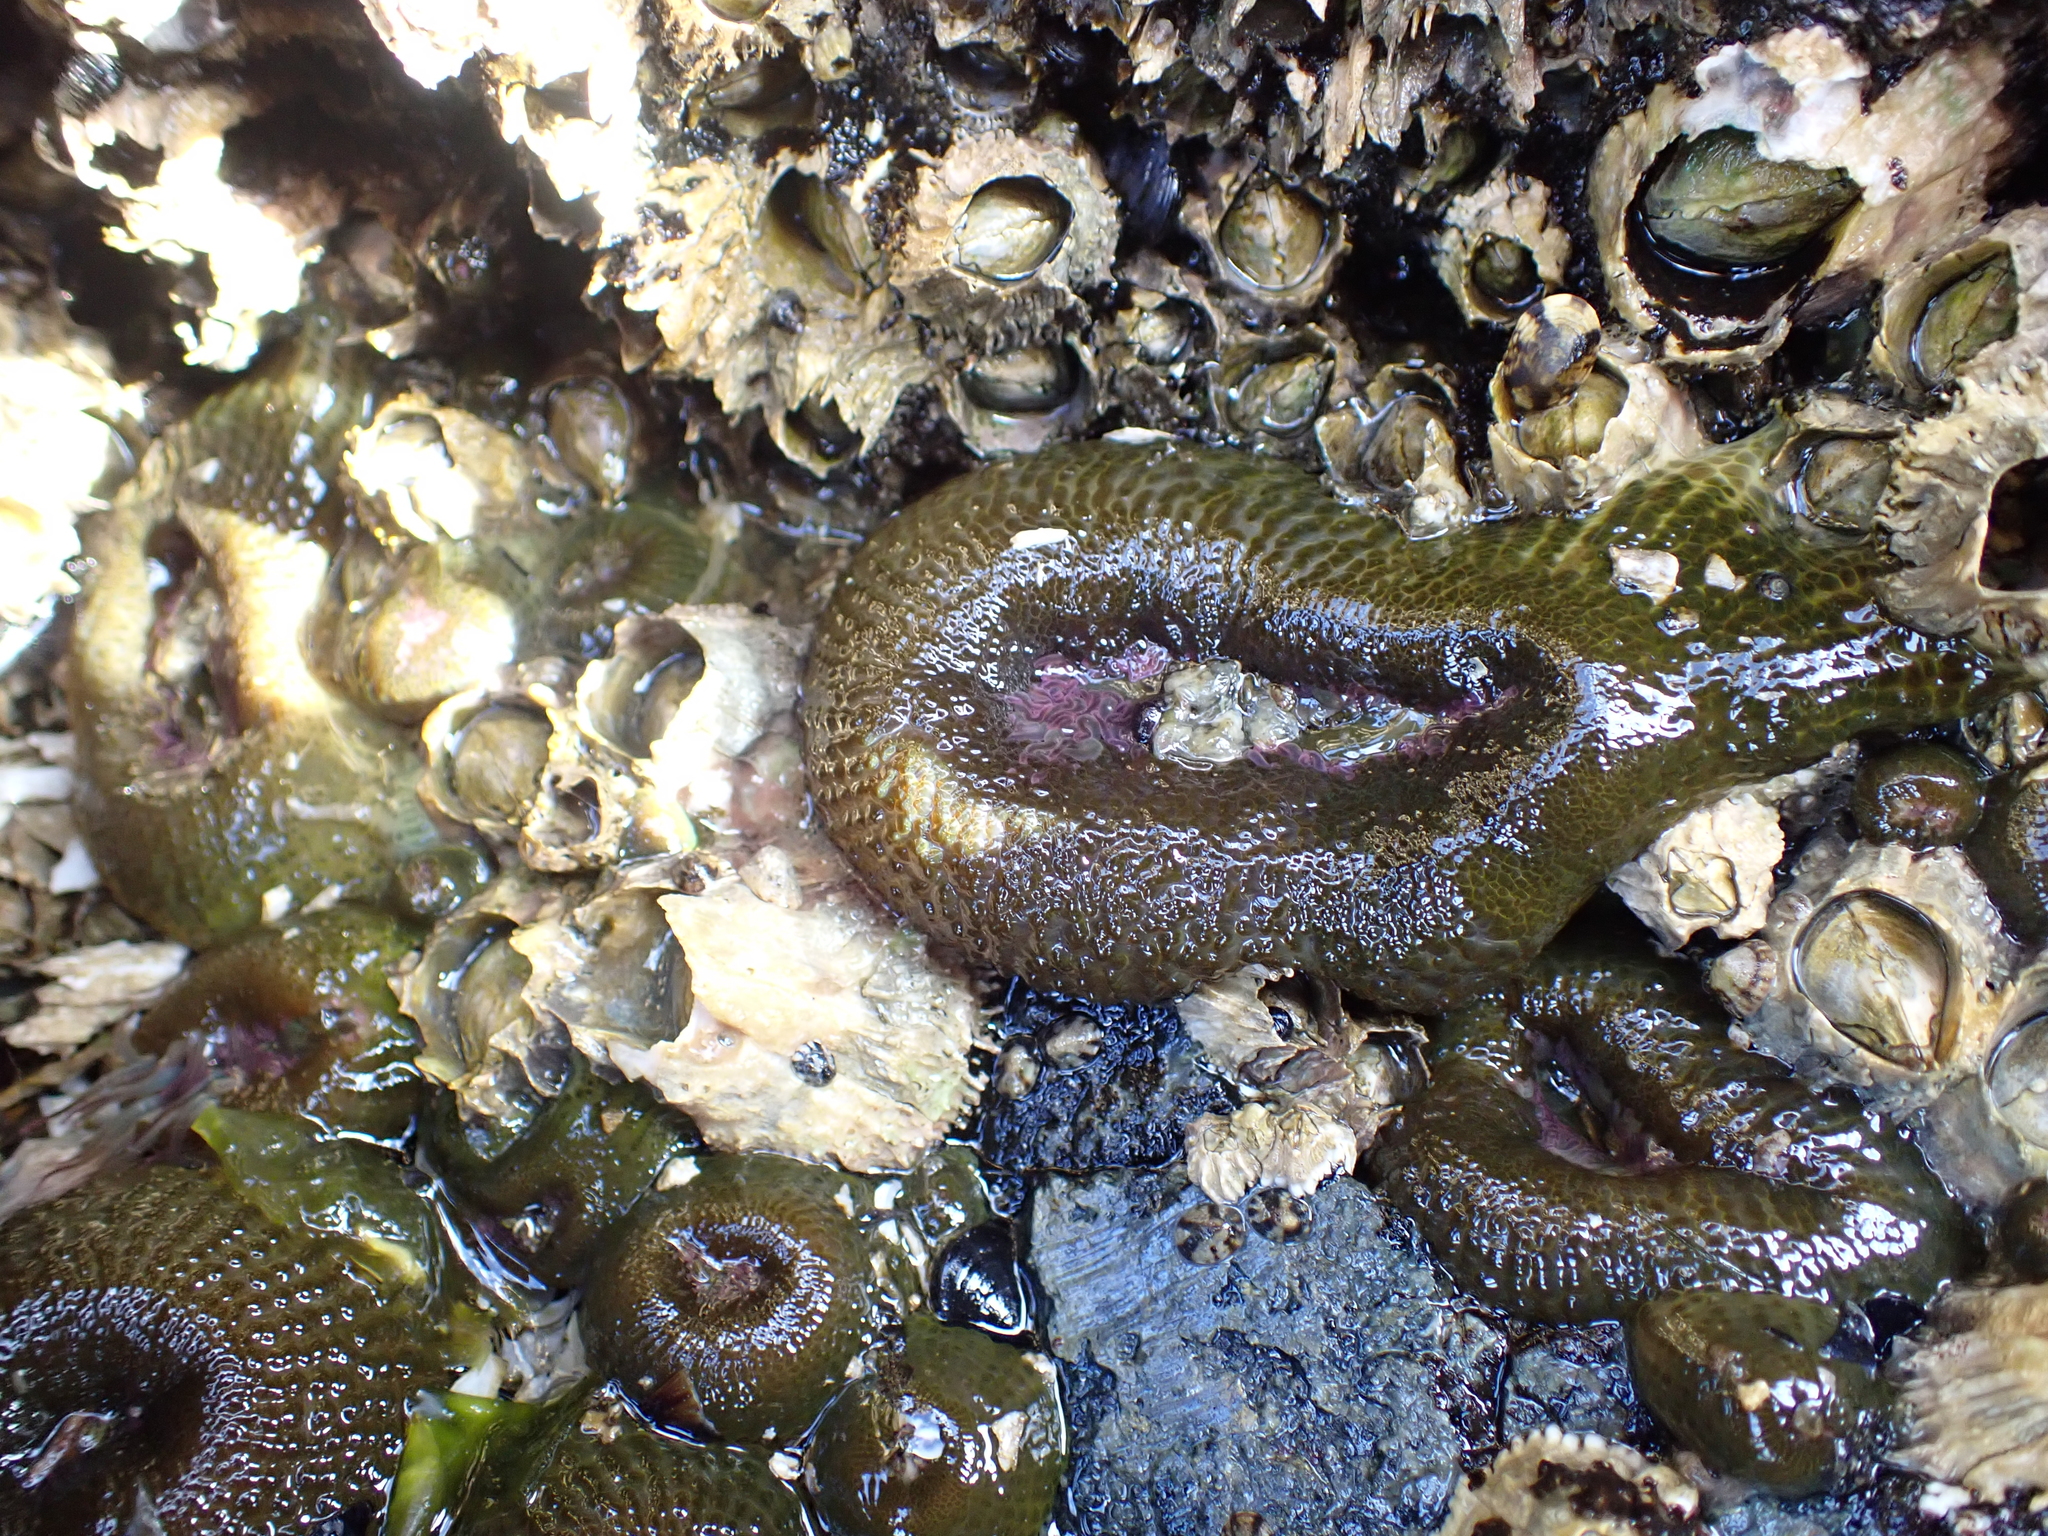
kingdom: Animalia
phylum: Cnidaria
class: Anthozoa
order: Actiniaria
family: Actiniidae
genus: Anthopleura
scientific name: Anthopleura elegantissima
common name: Clonal anemone
